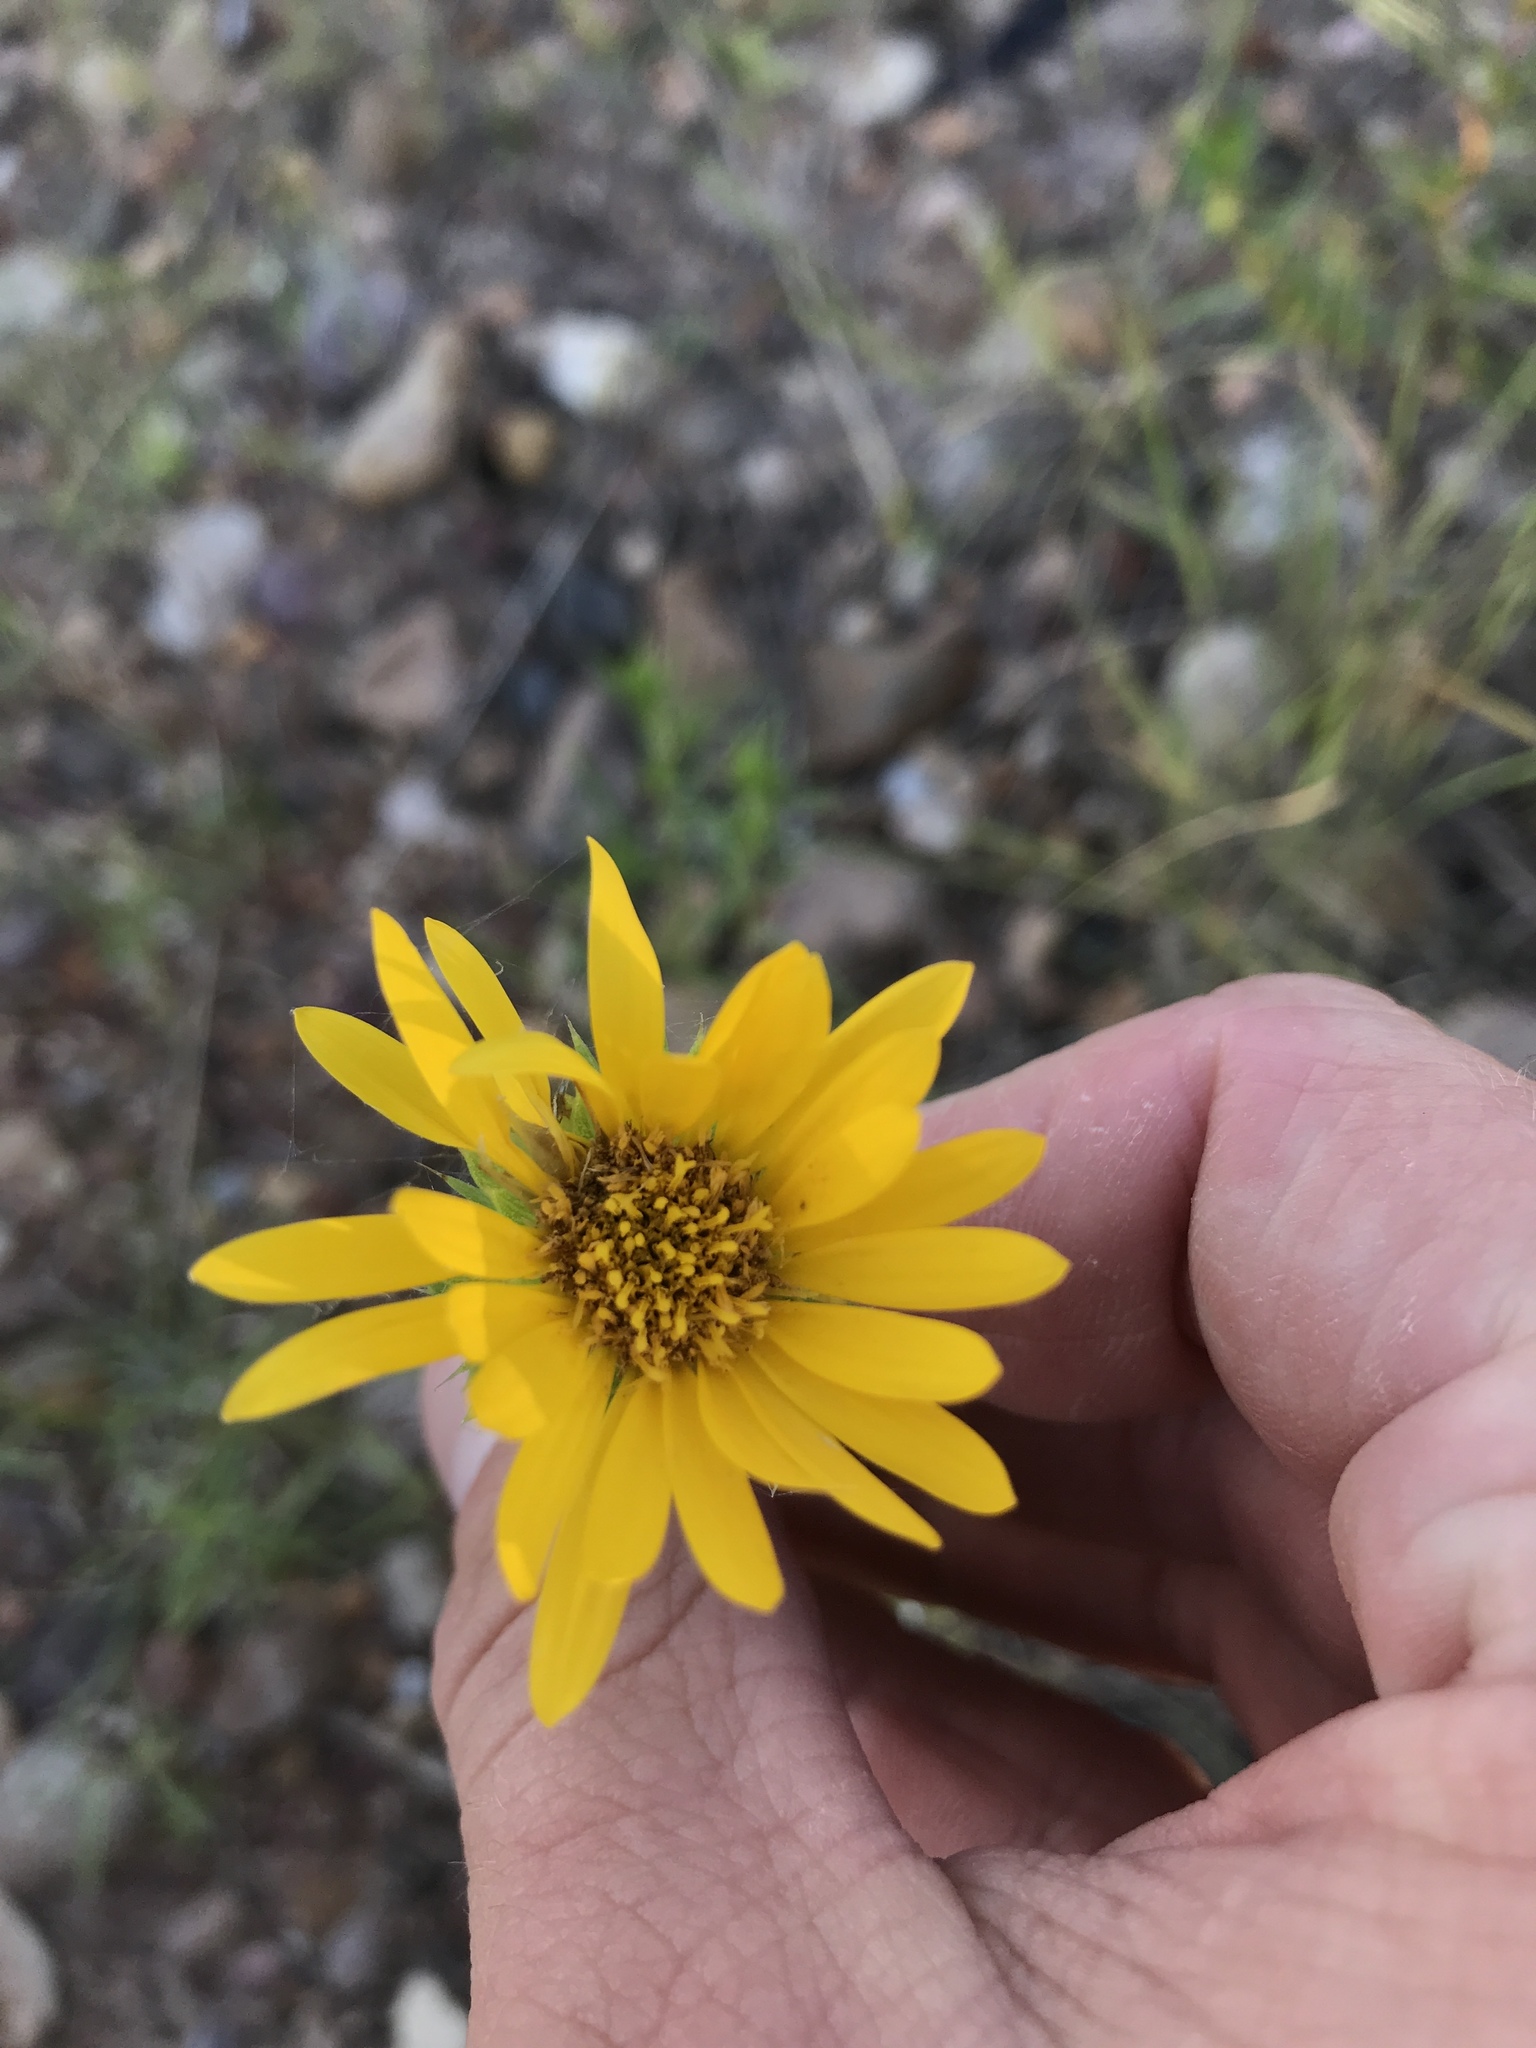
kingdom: Plantae
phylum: Tracheophyta
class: Magnoliopsida
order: Asterales
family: Asteraceae
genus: Grindelia
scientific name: Grindelia ciliata
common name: Goldenweed
